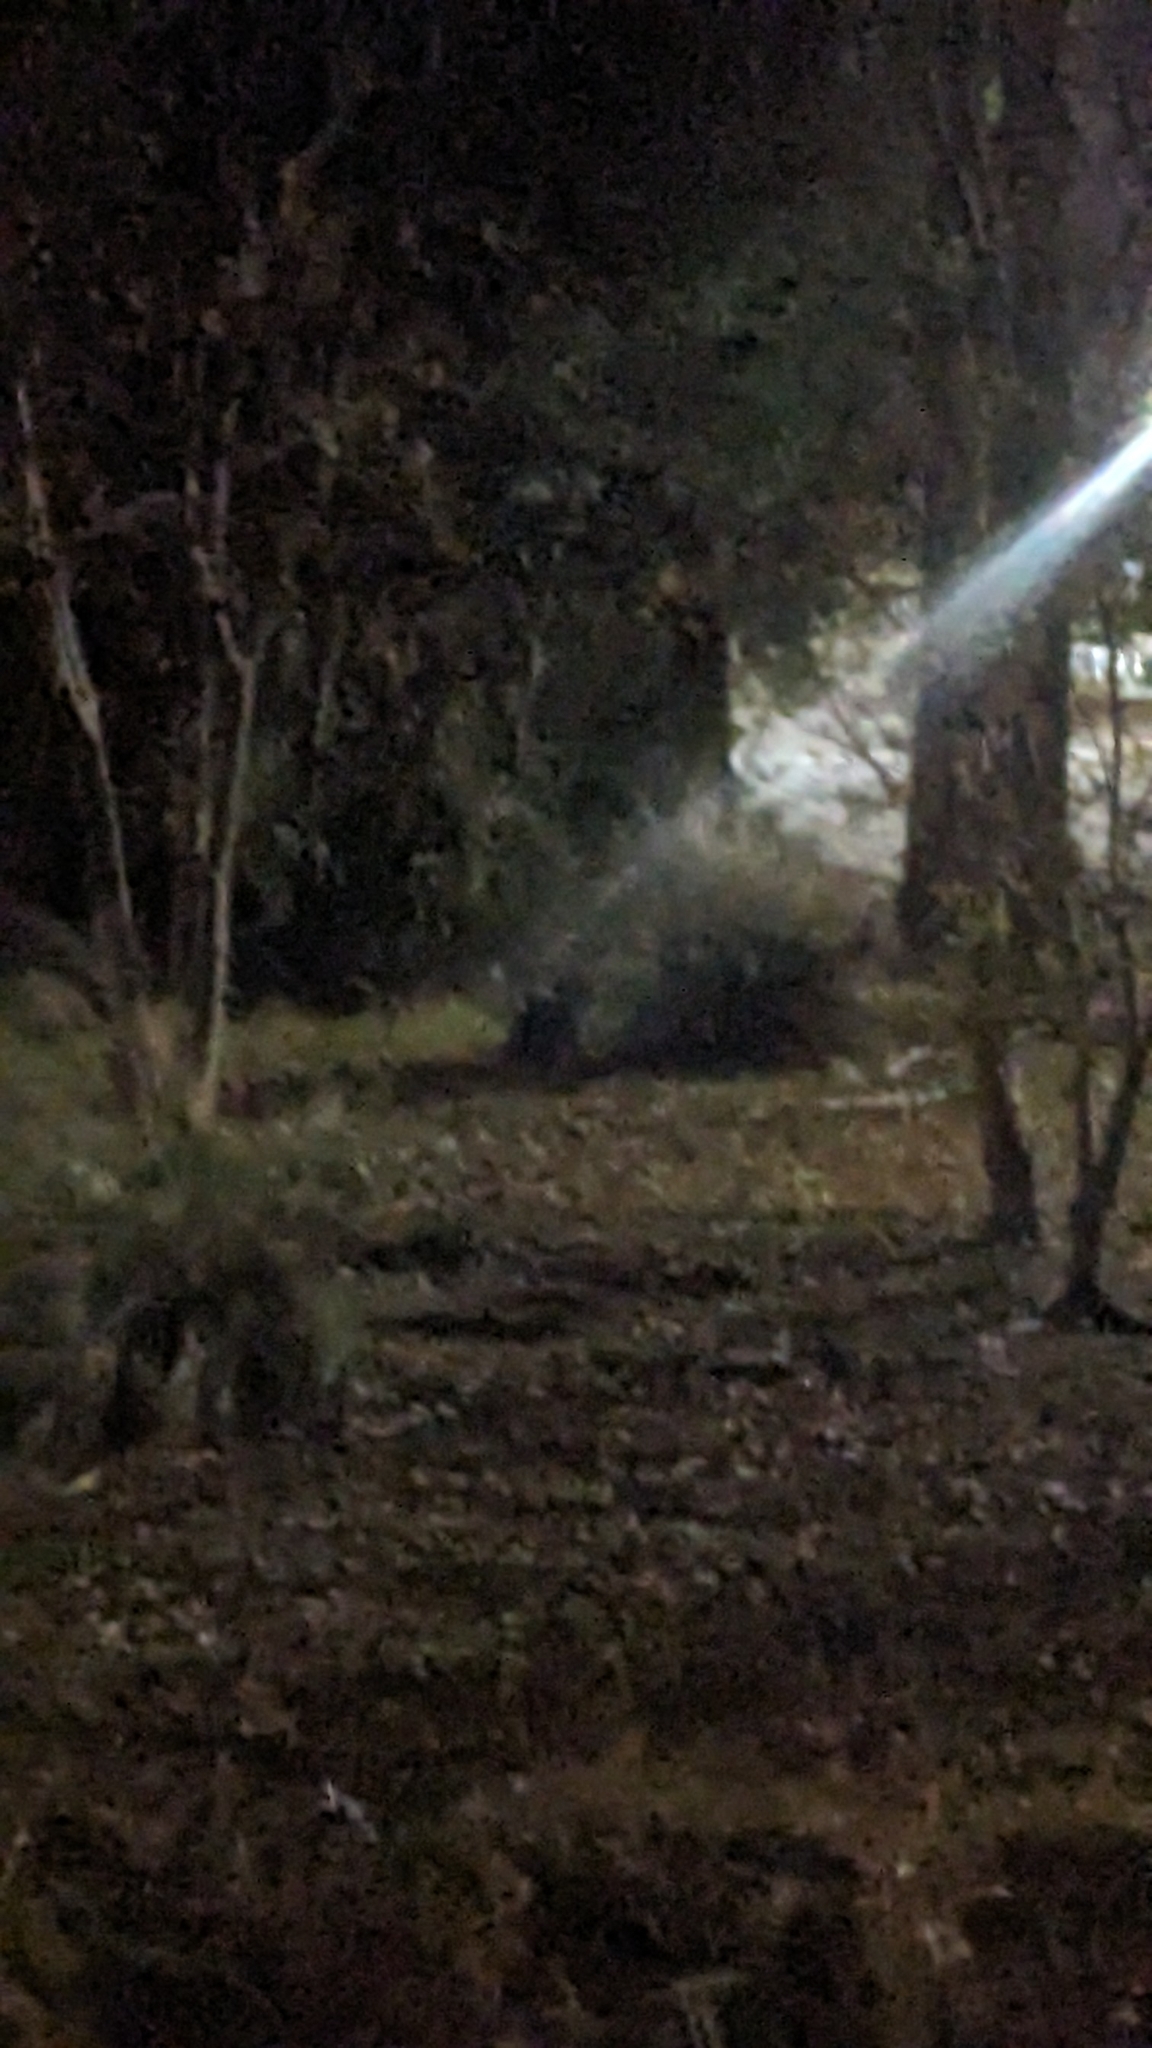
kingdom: Animalia
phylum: Chordata
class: Mammalia
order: Carnivora
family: Felidae
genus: Felis
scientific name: Felis catus
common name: Domestic cat
